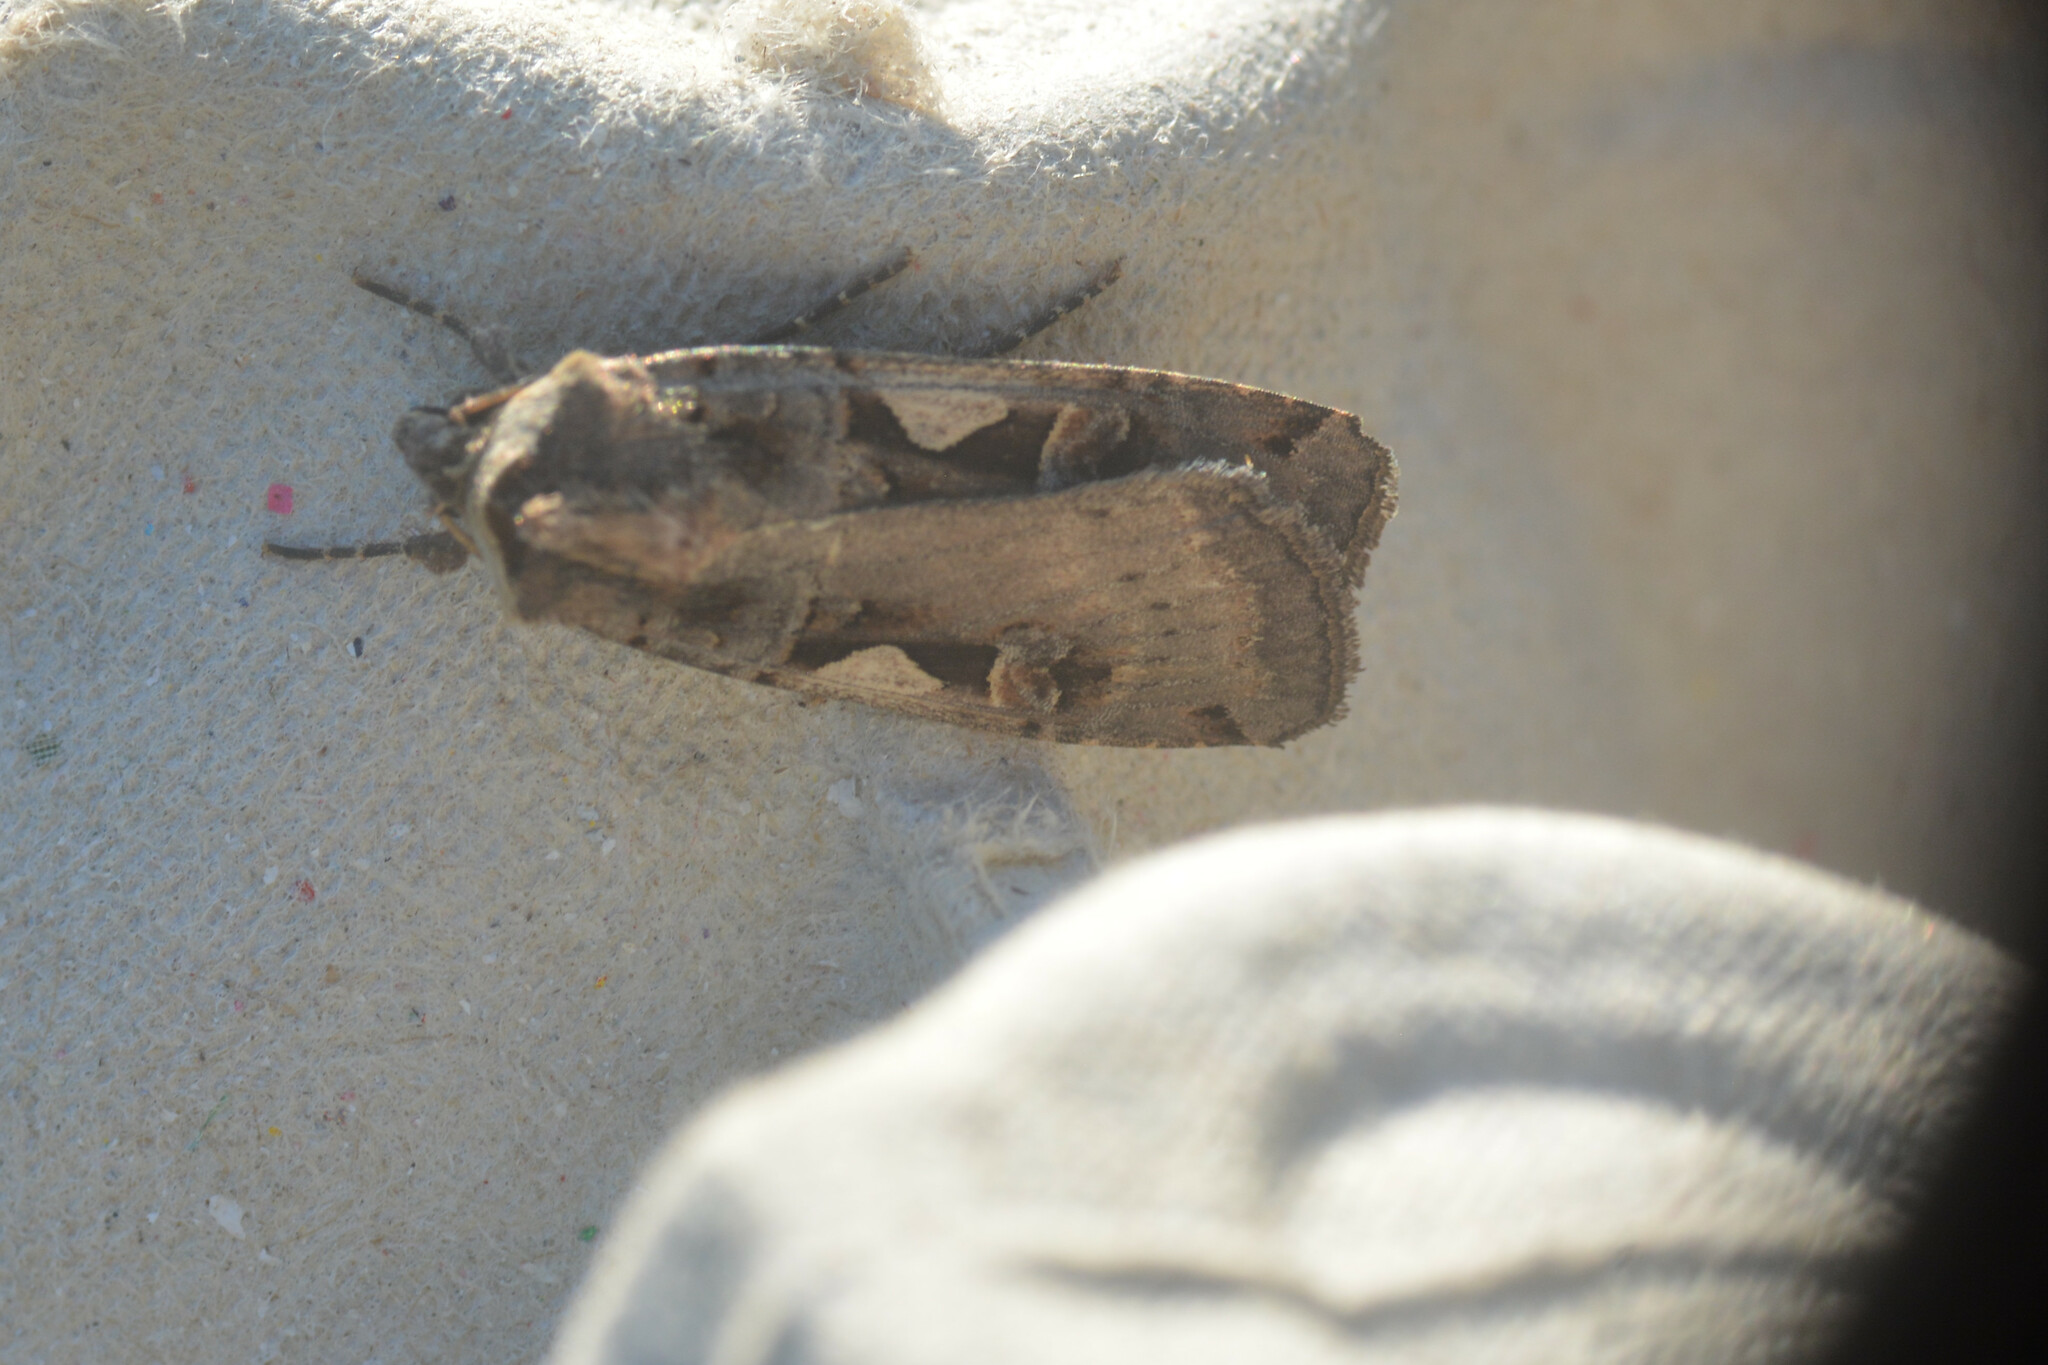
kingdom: Animalia
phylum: Arthropoda
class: Insecta
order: Lepidoptera
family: Noctuidae
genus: Xestia
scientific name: Xestia c-nigrum
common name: Setaceous hebrew character
